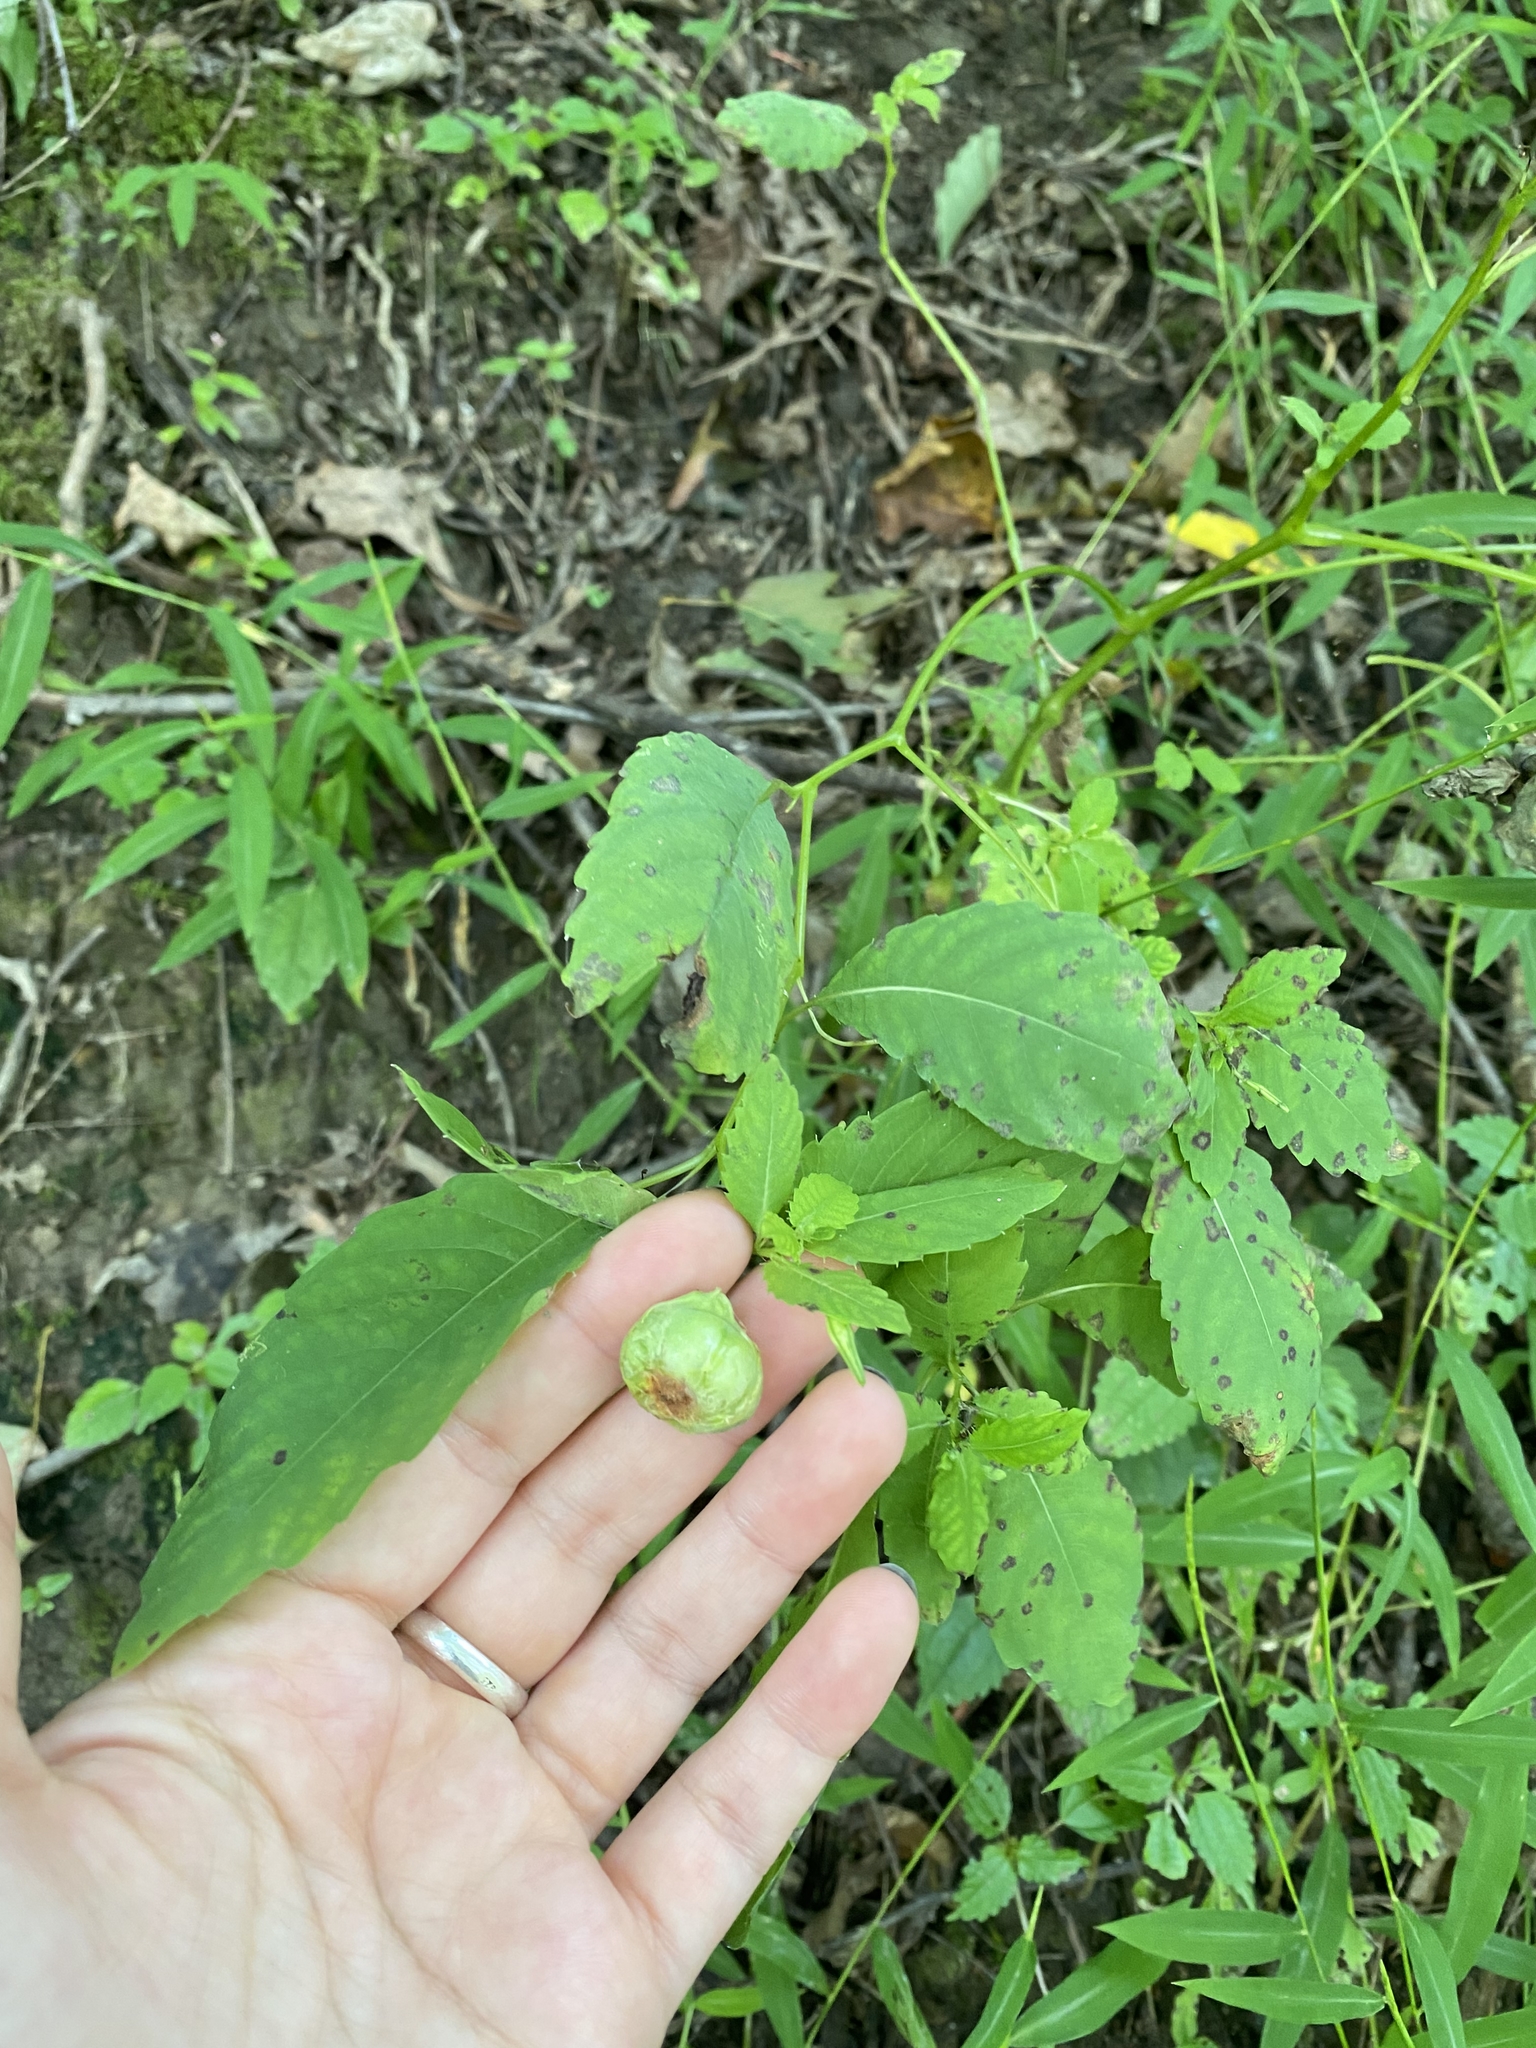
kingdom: Animalia
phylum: Arthropoda
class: Insecta
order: Diptera
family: Cecidomyiidae
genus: Schizomyia
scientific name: Schizomyia impatientis
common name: Jewelweed gall midge
